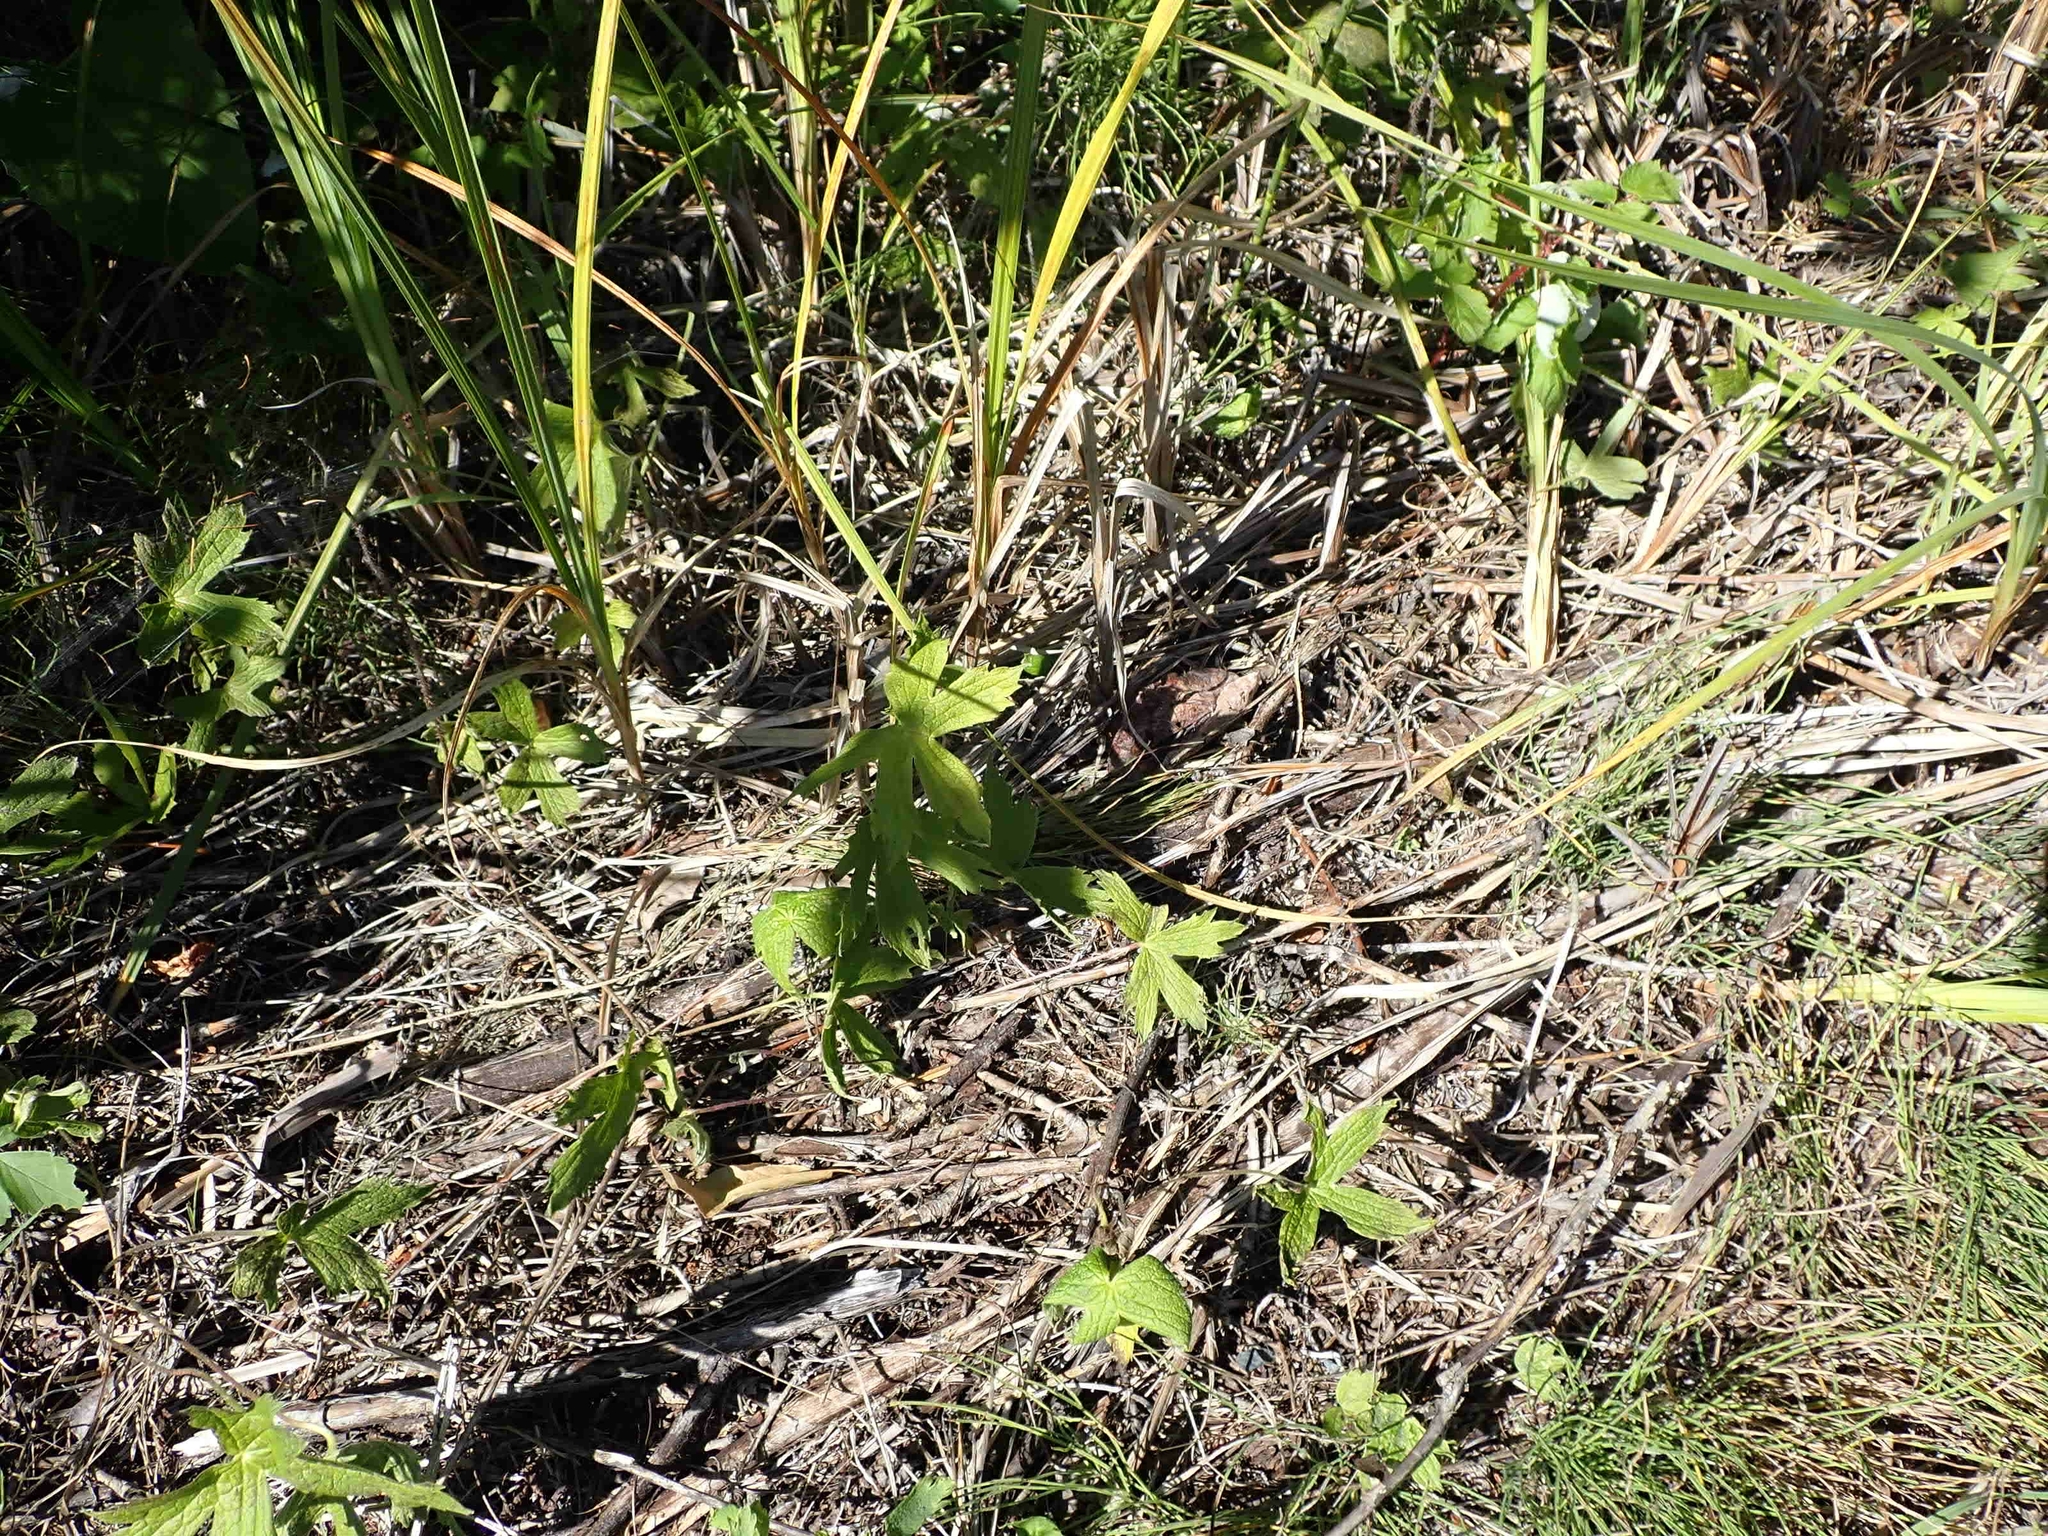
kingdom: Plantae
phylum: Tracheophyta
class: Magnoliopsida
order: Ranunculales
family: Ranunculaceae
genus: Anemonastrum
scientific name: Anemonastrum canadense
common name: Canada anemone
